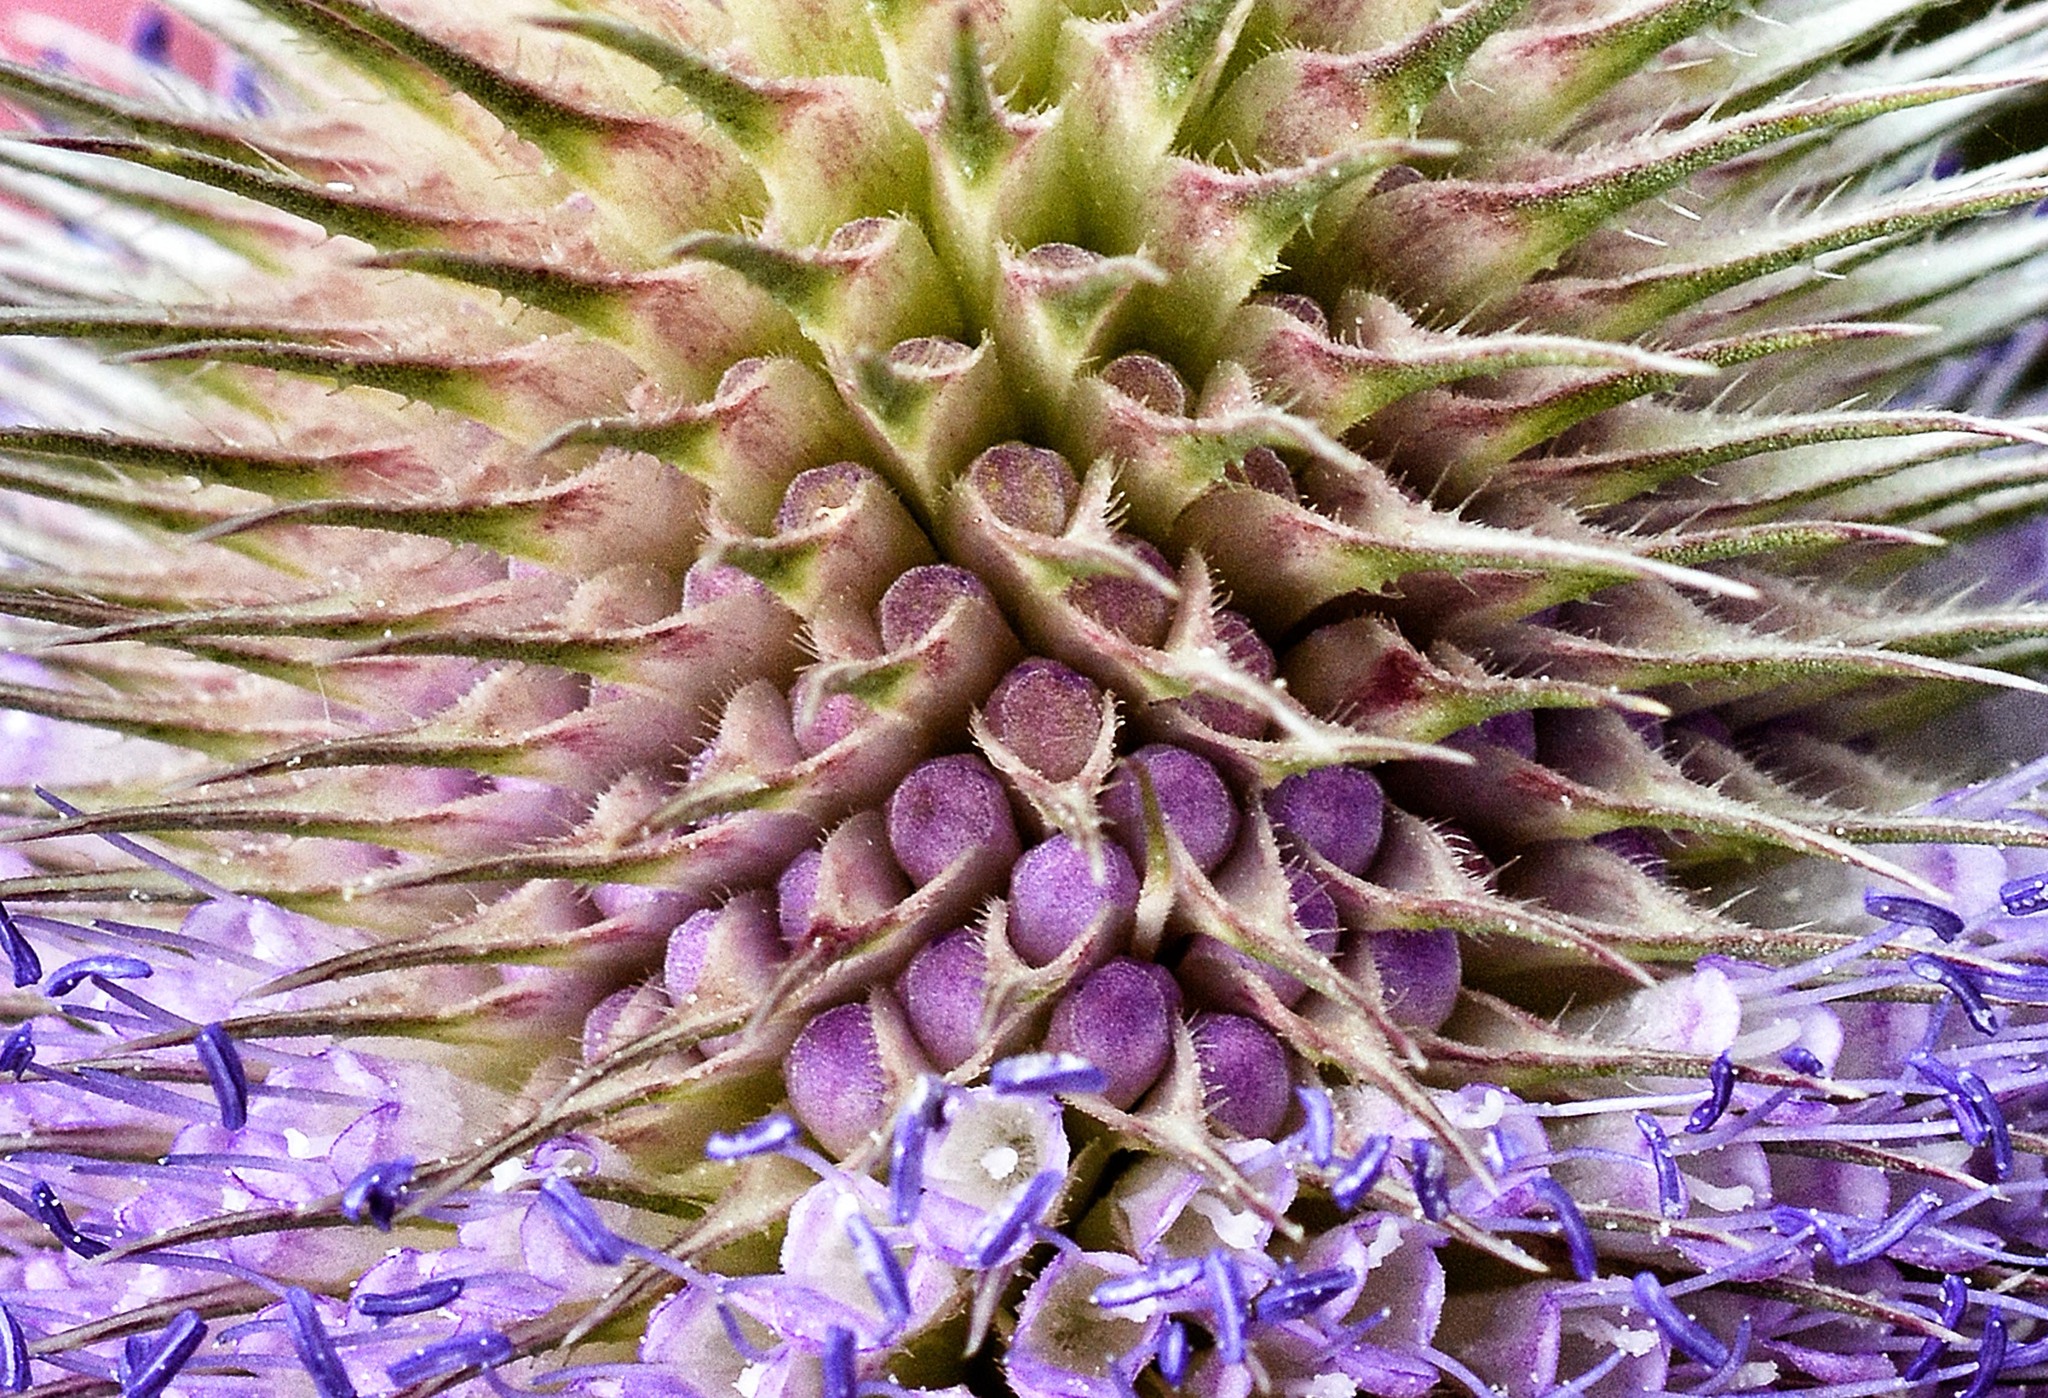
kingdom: Plantae
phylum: Tracheophyta
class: Magnoliopsida
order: Dipsacales
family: Caprifoliaceae
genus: Dipsacus
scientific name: Dipsacus fullonum
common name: Teasel
